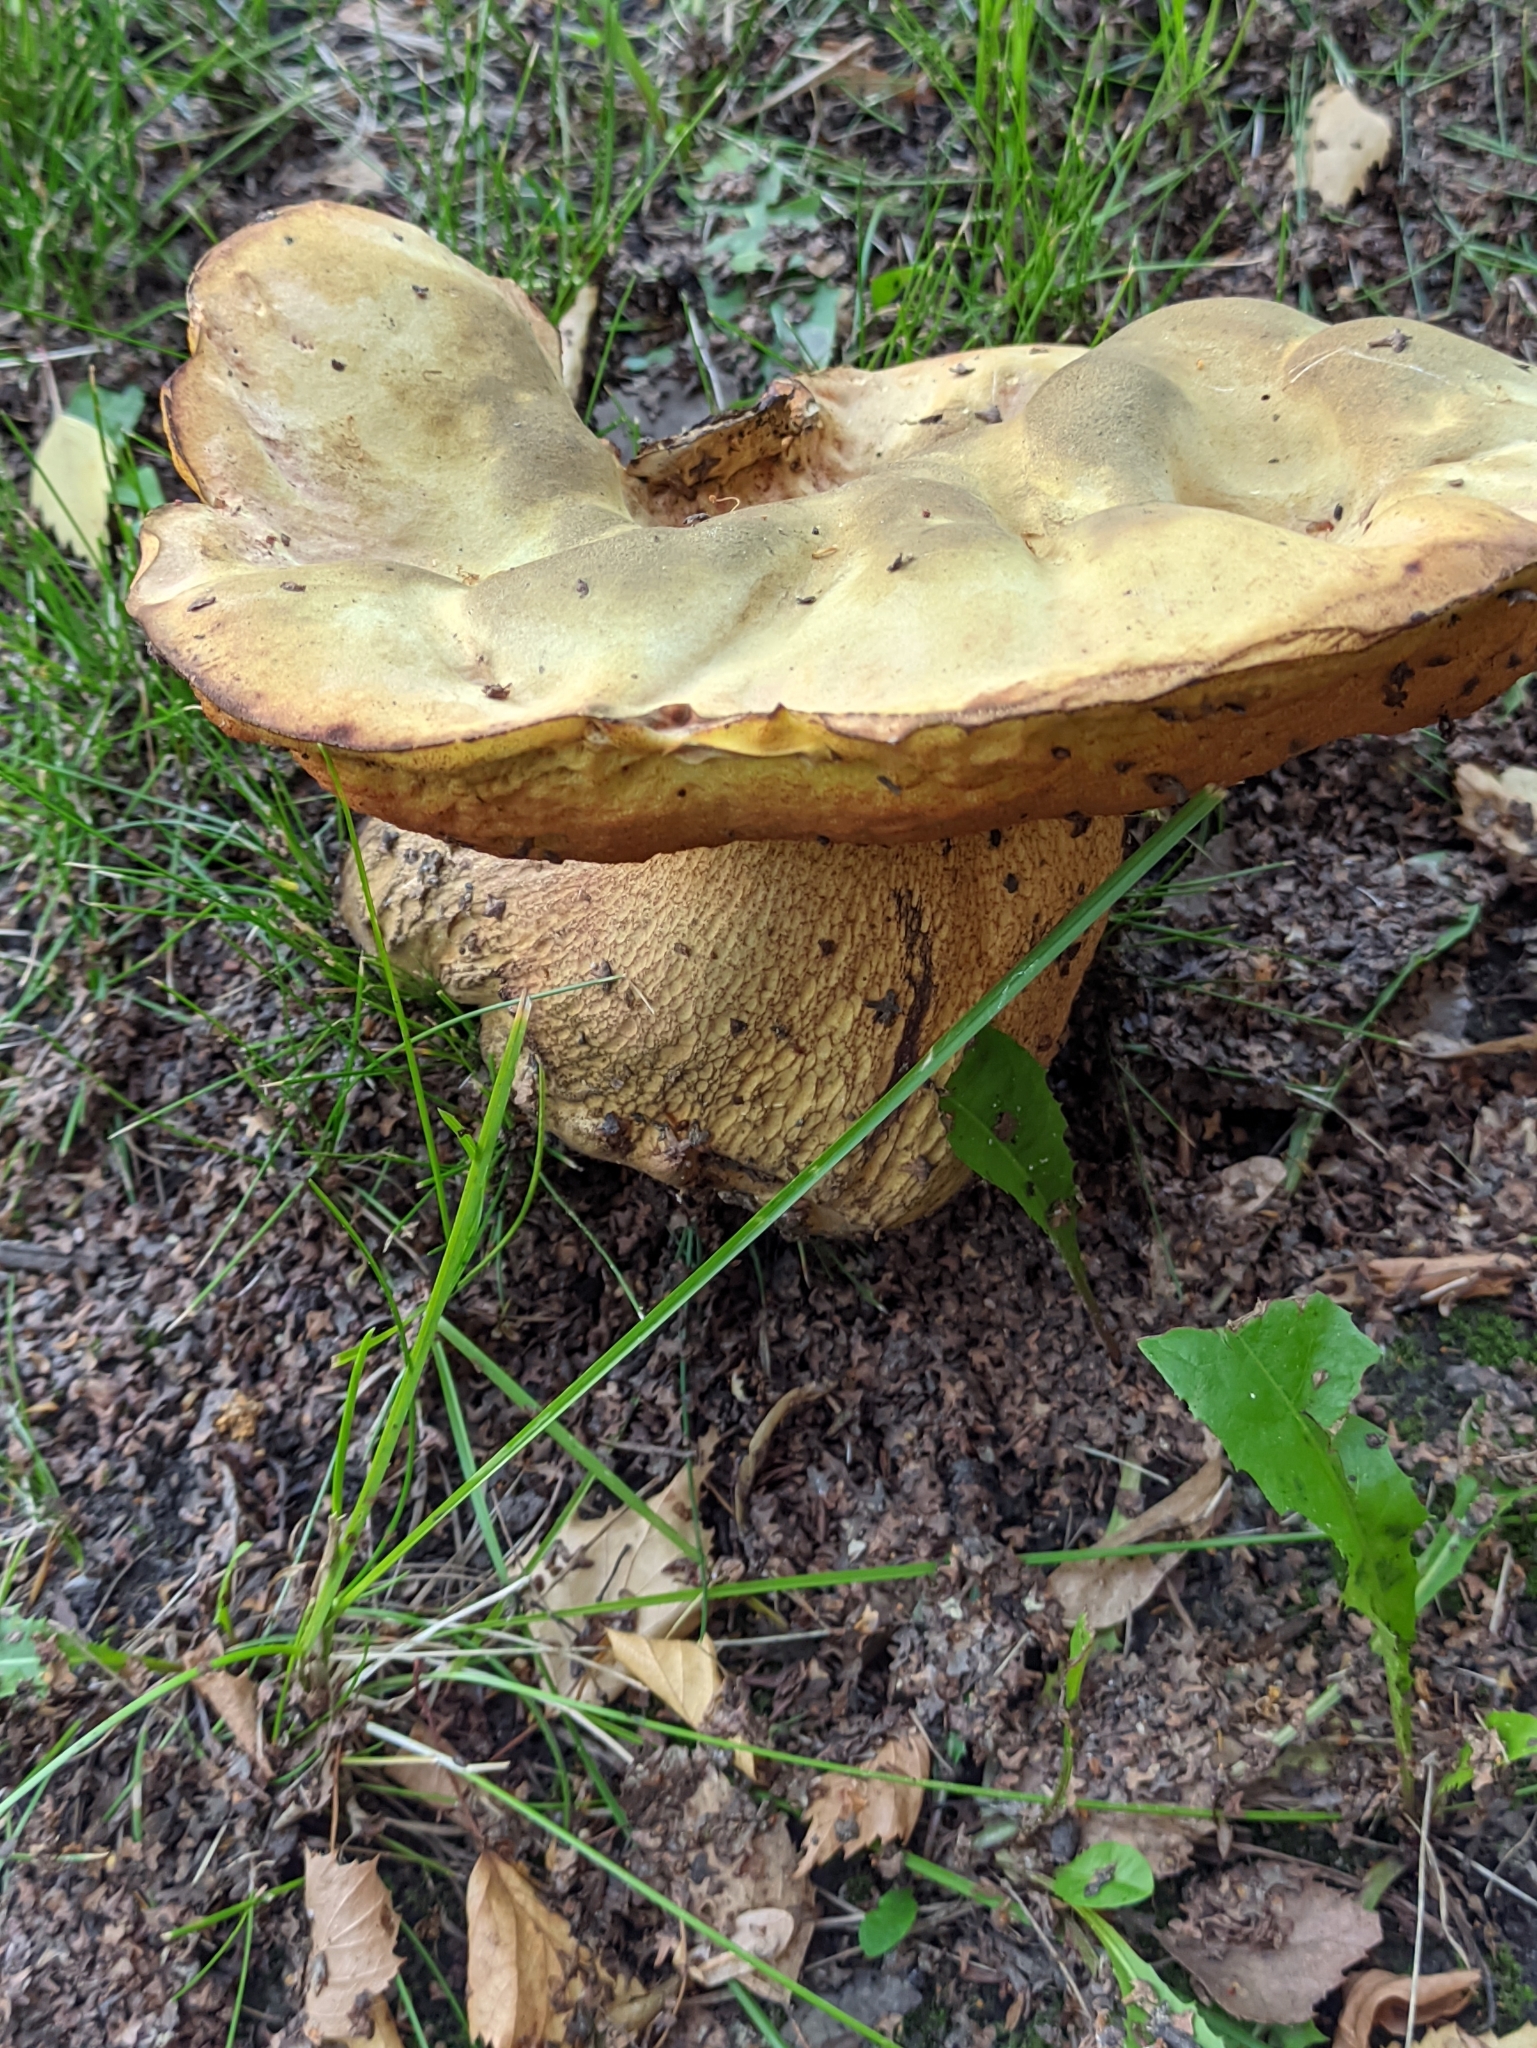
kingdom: Fungi
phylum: Basidiomycota
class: Agaricomycetes
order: Boletales
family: Boletaceae
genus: Suillellus
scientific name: Suillellus luridus
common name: Lurid bolete
